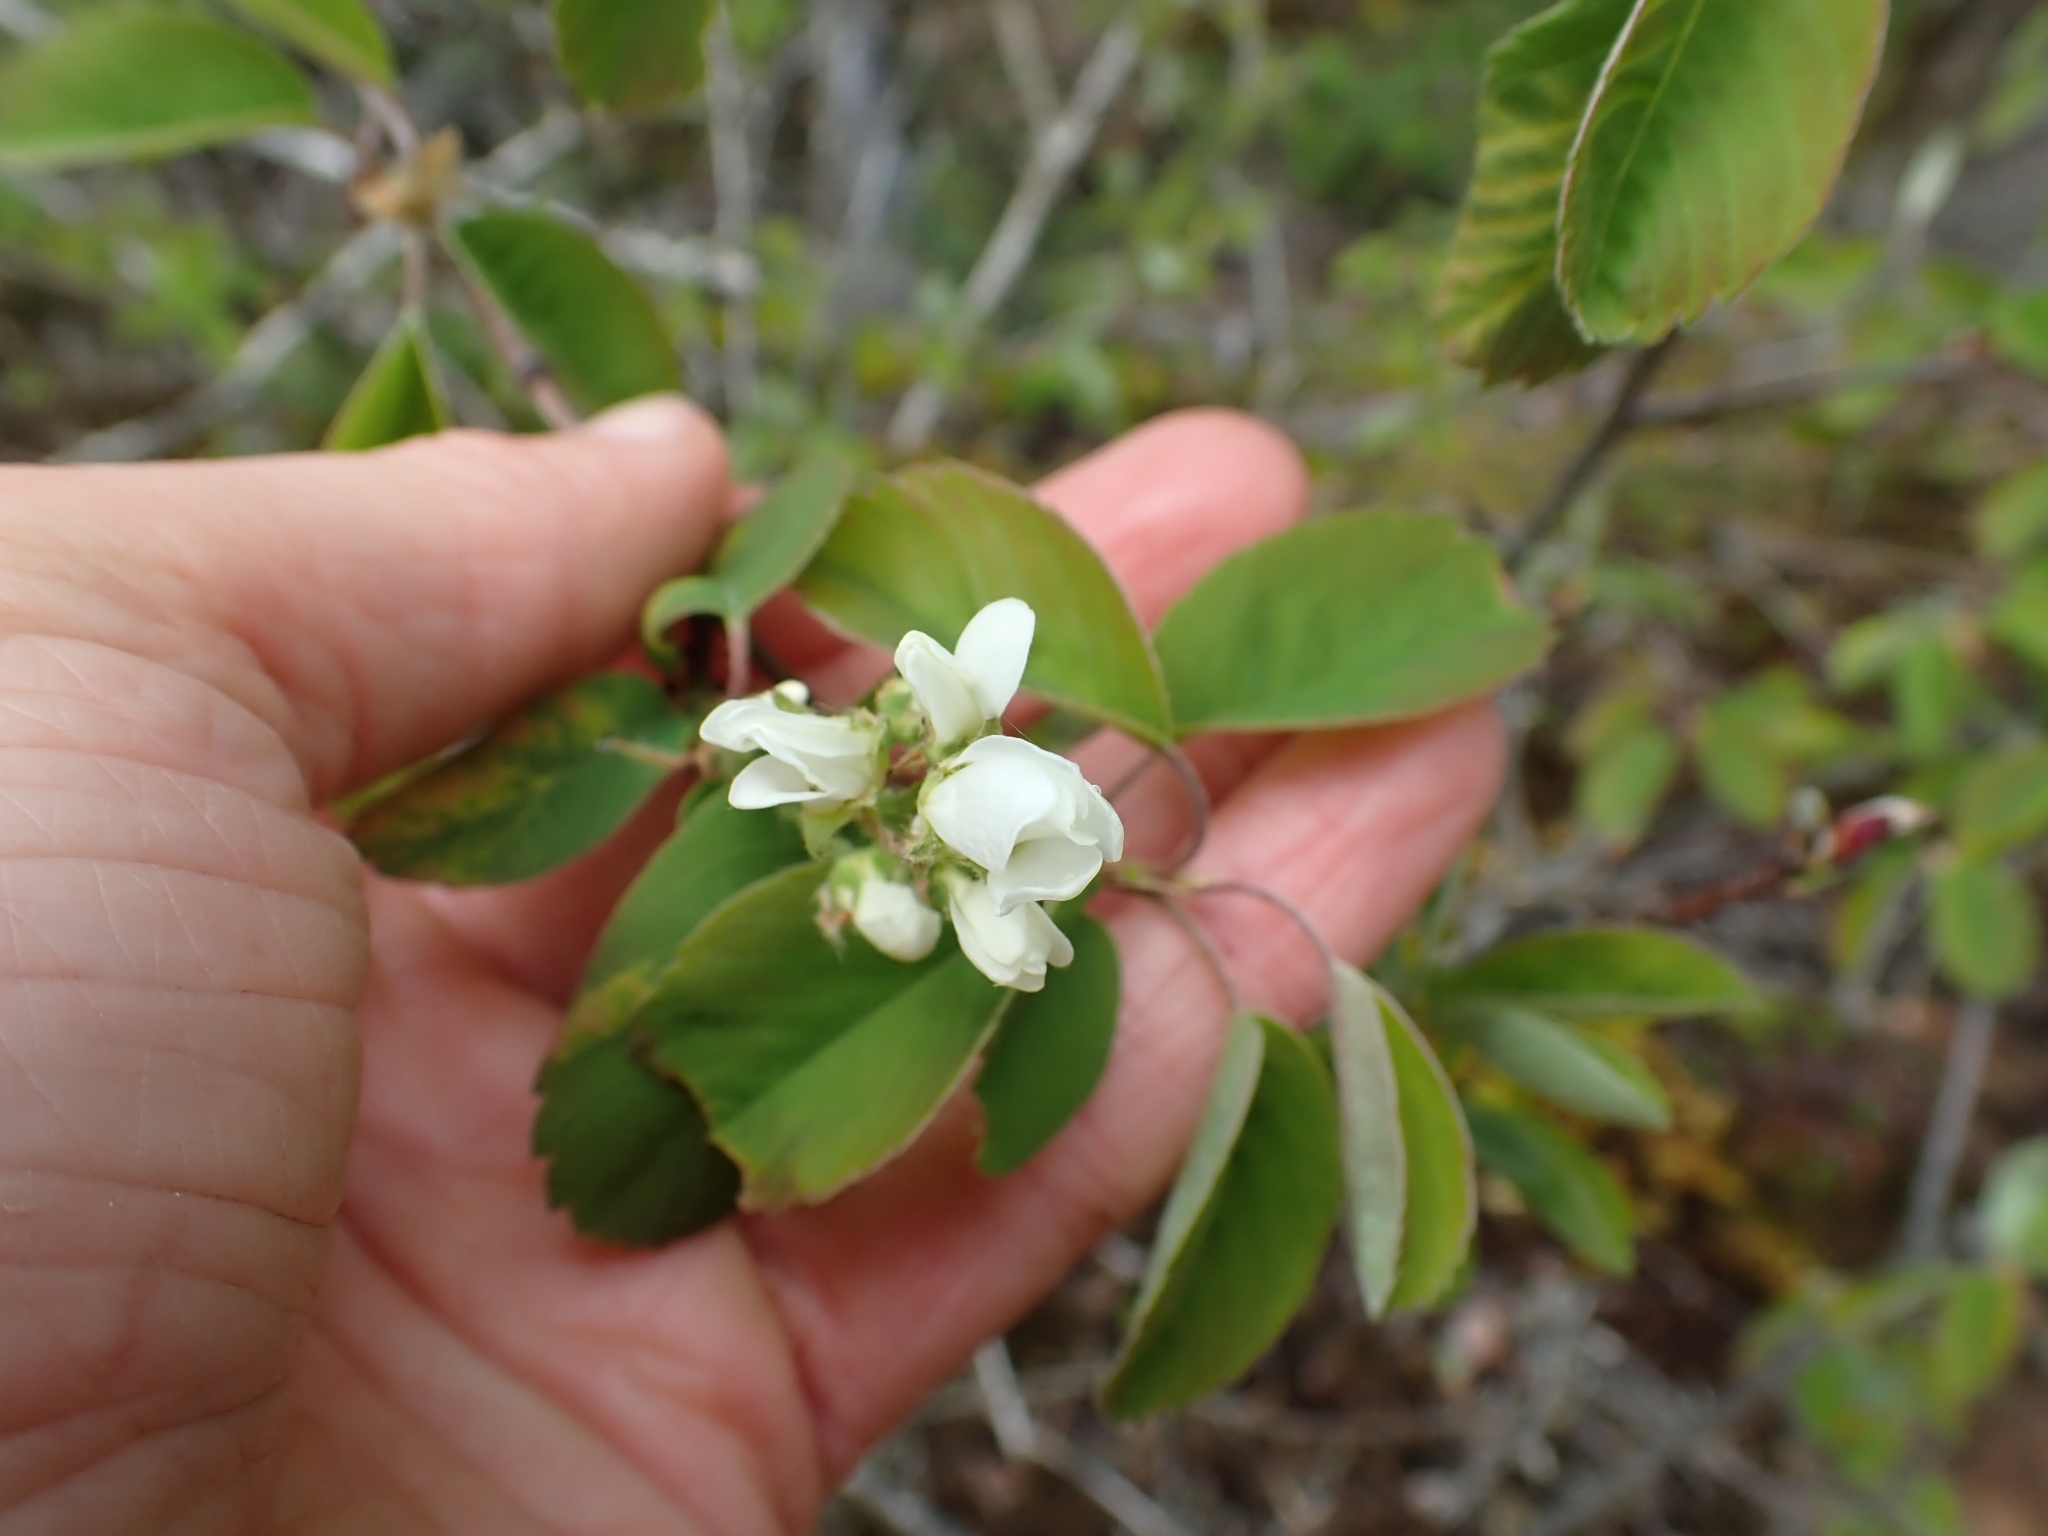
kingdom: Plantae
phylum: Tracheophyta
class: Magnoliopsida
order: Rosales
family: Rosaceae
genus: Amelanchier
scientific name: Amelanchier alnifolia
